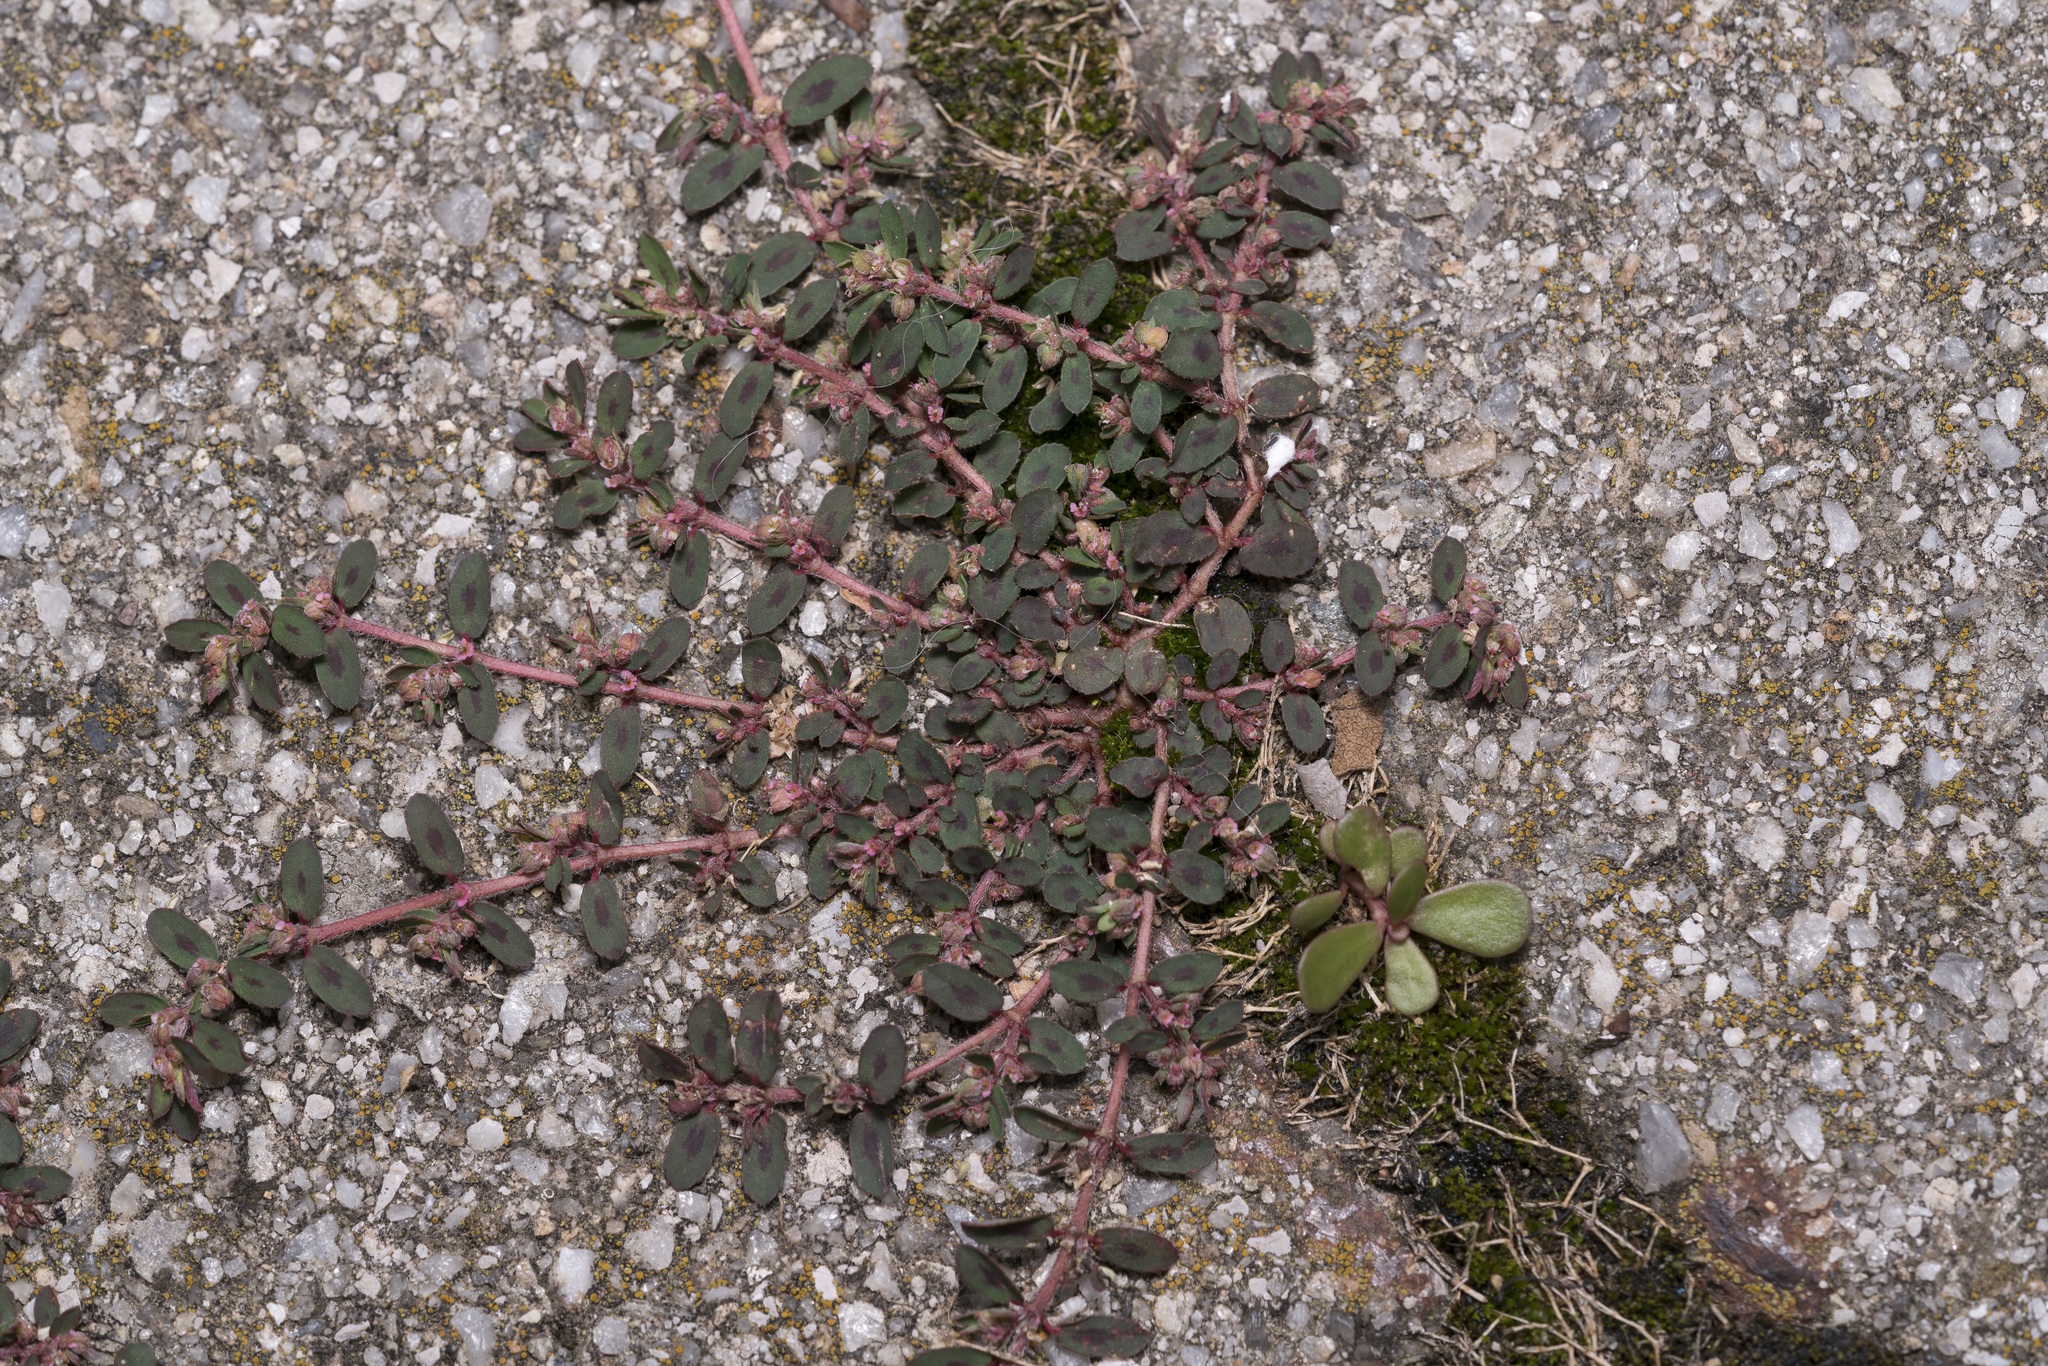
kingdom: Plantae
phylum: Tracheophyta
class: Magnoliopsida
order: Malpighiales
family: Euphorbiaceae
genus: Euphorbia
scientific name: Euphorbia maculata
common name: Spotted spurge
